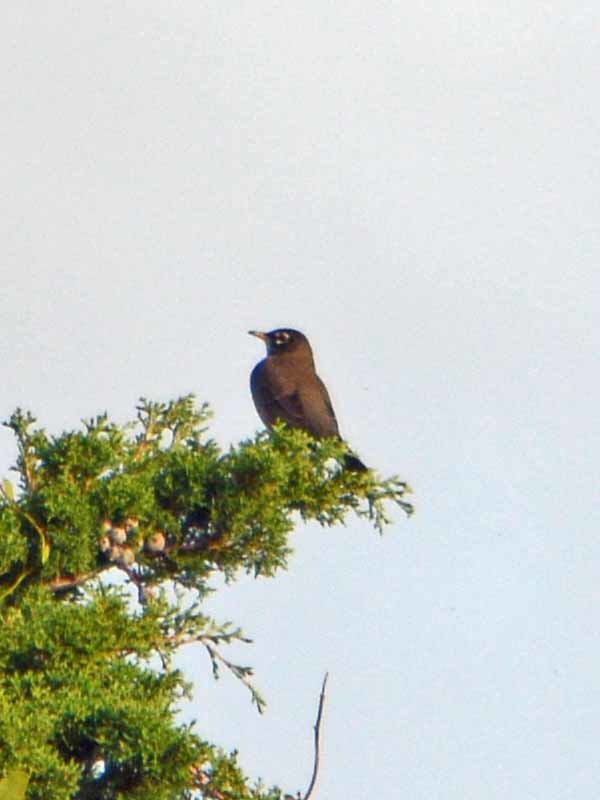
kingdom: Animalia
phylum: Chordata
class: Aves
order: Passeriformes
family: Turdidae
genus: Turdus
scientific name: Turdus migratorius
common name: American robin
